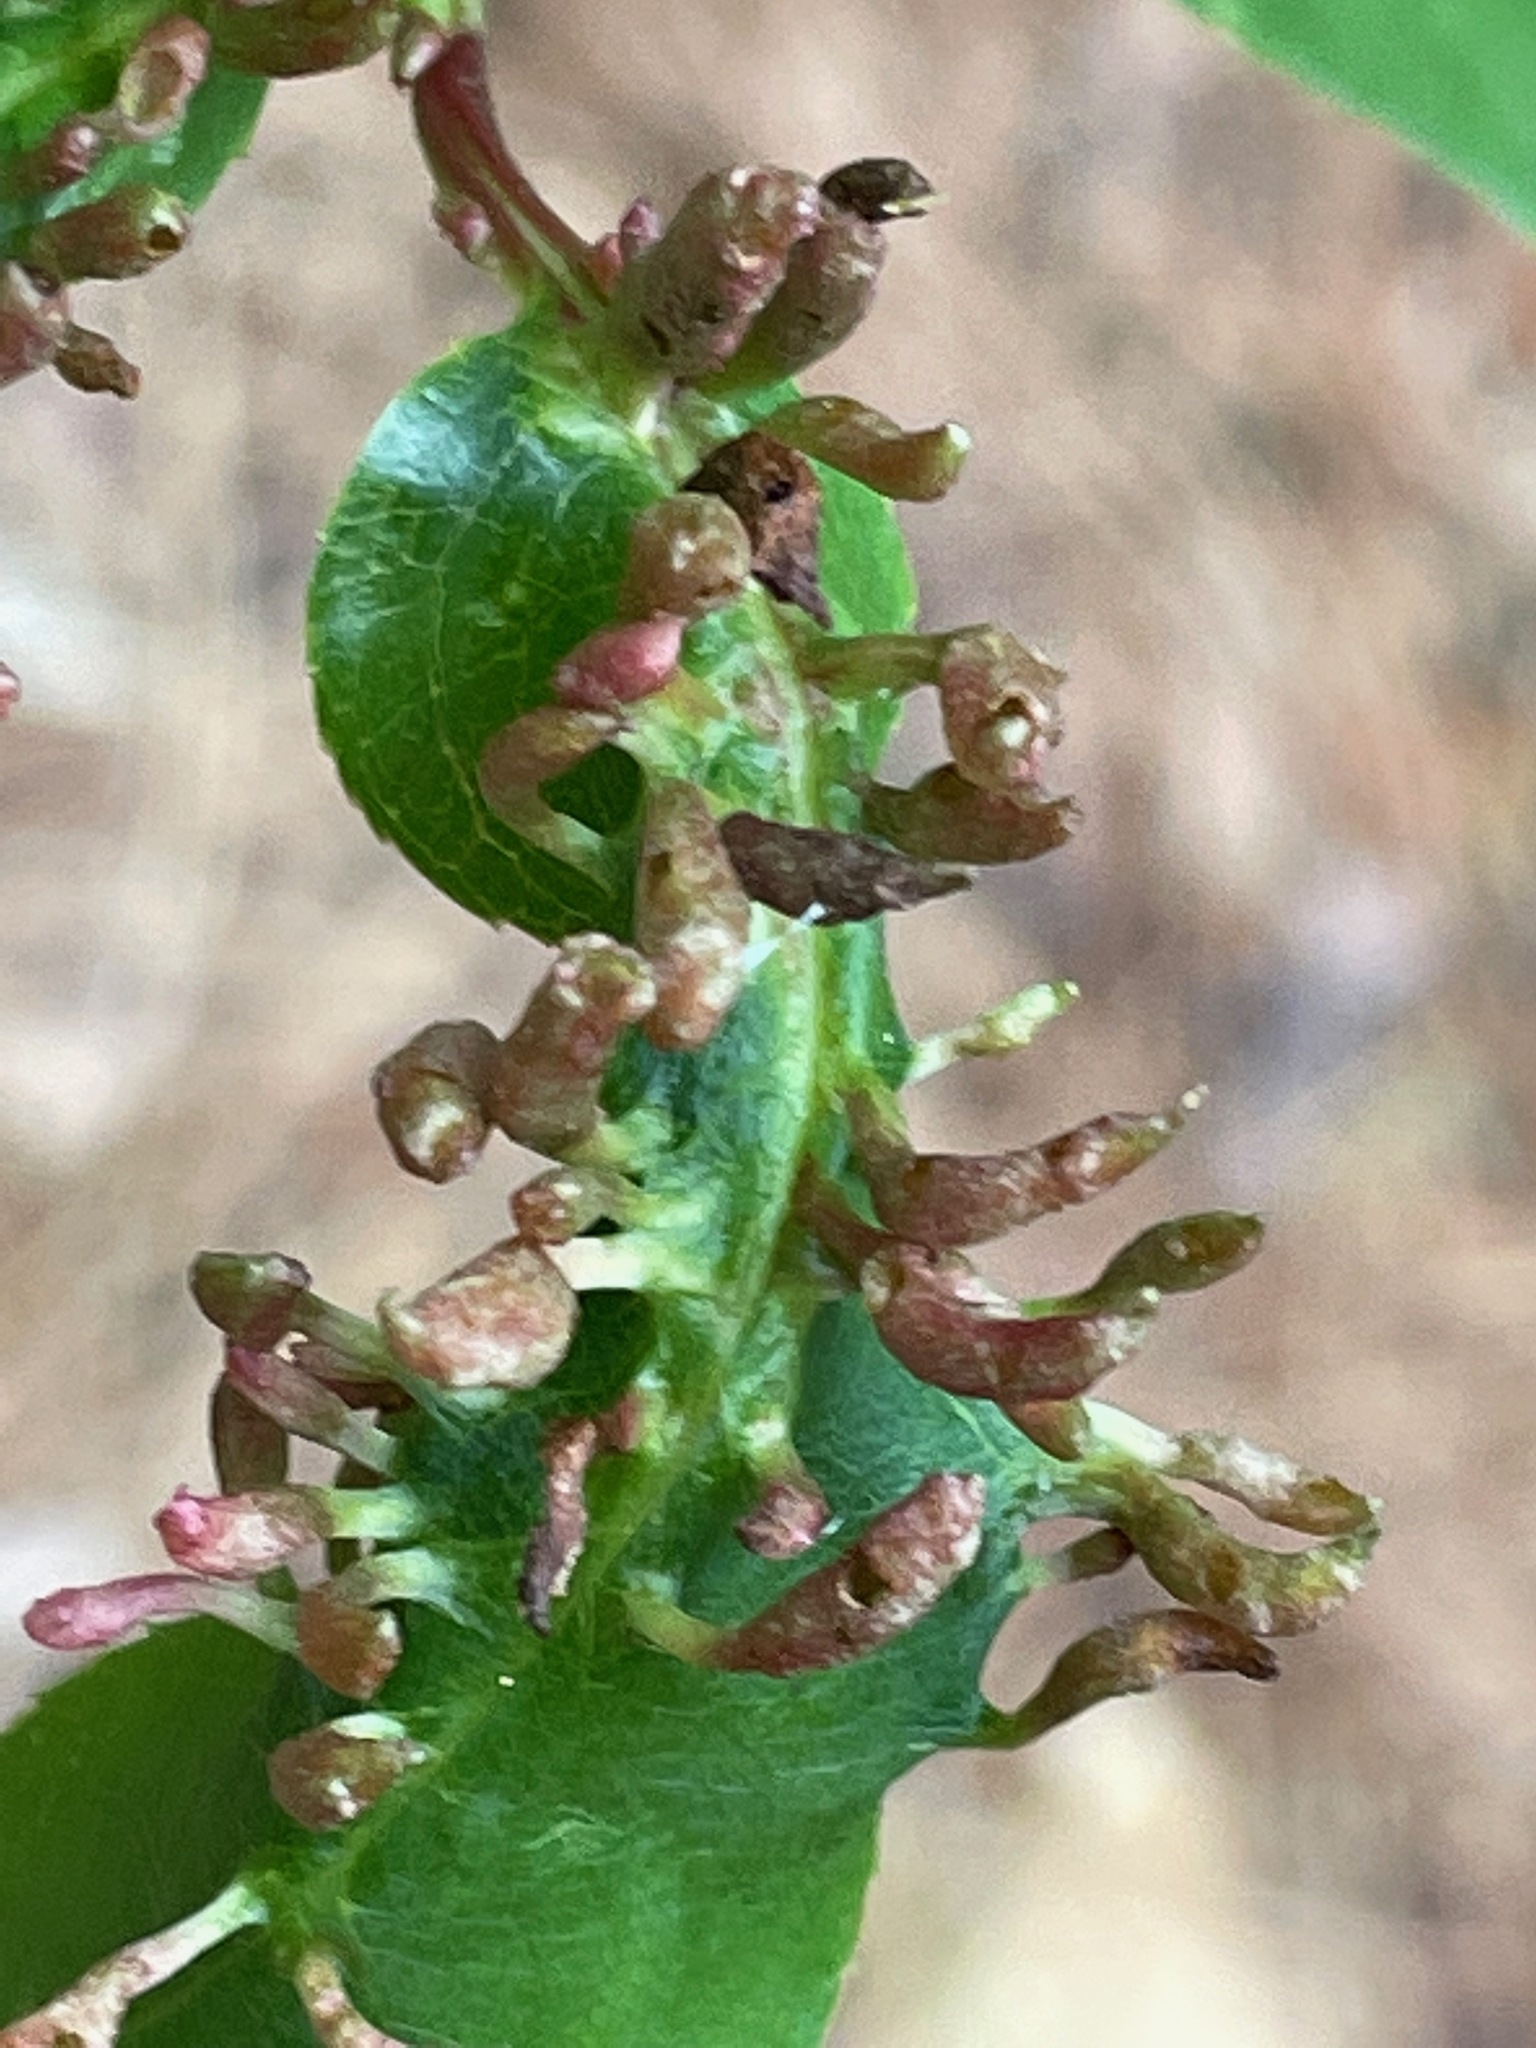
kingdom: Animalia
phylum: Arthropoda
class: Arachnida
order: Trombidiformes
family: Eriophyidae
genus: Eriophyes
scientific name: Eriophyes
